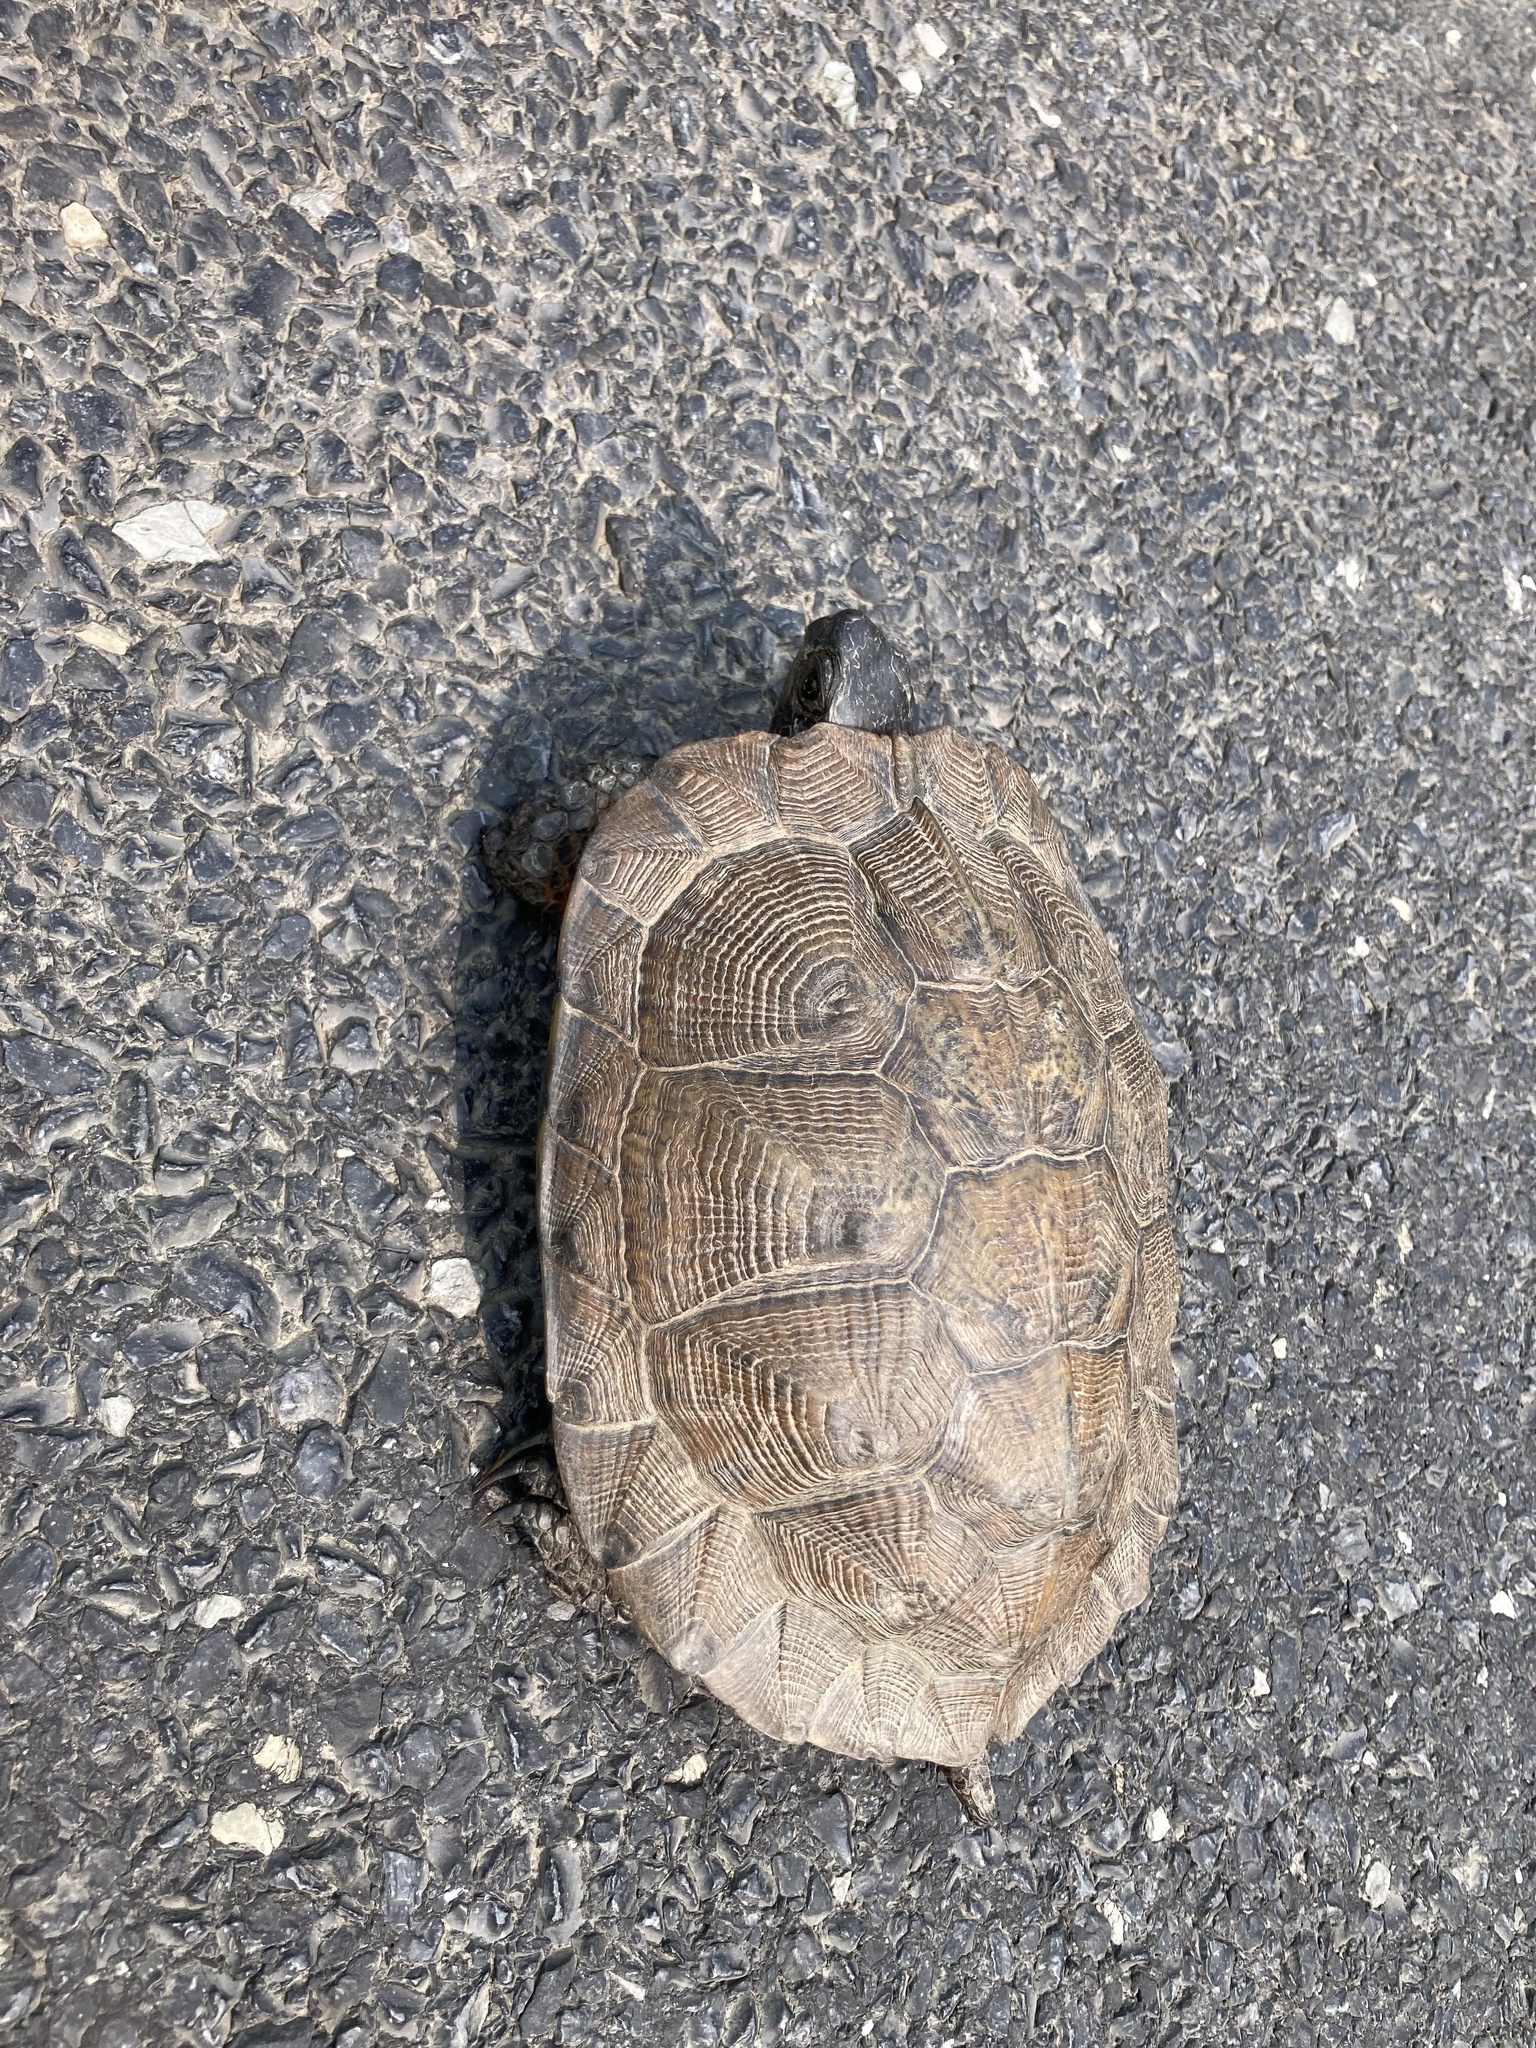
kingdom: Animalia
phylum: Chordata
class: Testudines
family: Emydidae
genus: Glyptemys
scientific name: Glyptemys insculpta
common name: Wood turtle
